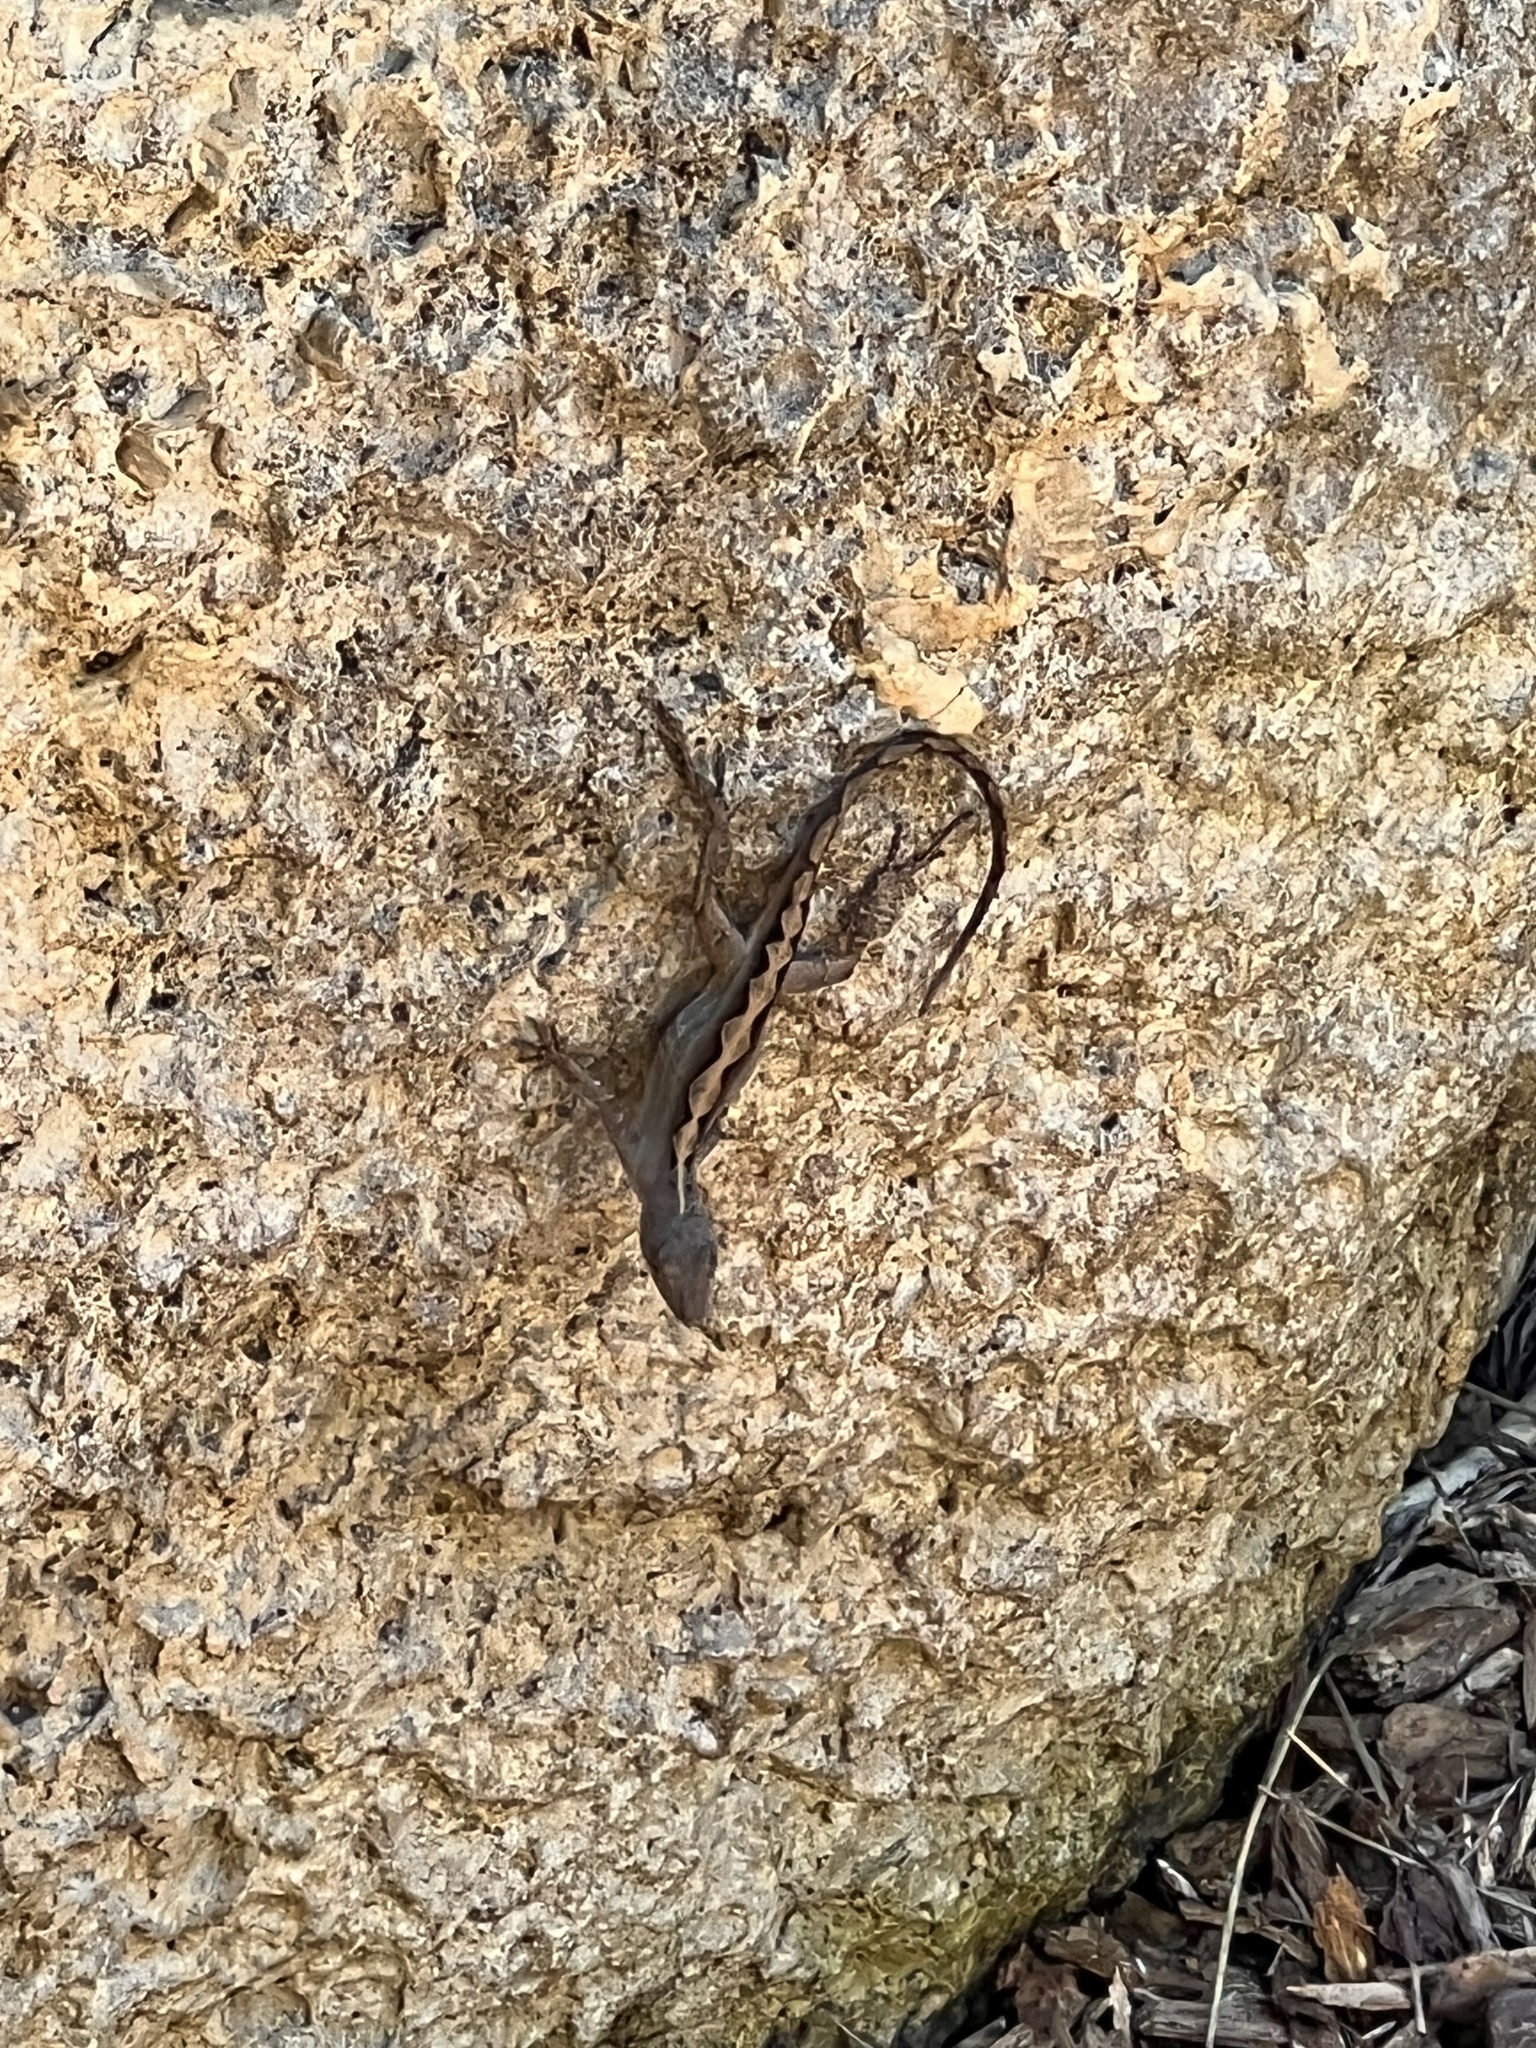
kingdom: Animalia
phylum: Chordata
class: Squamata
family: Dactyloidae
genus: Anolis
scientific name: Anolis sagrei
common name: Brown anole
